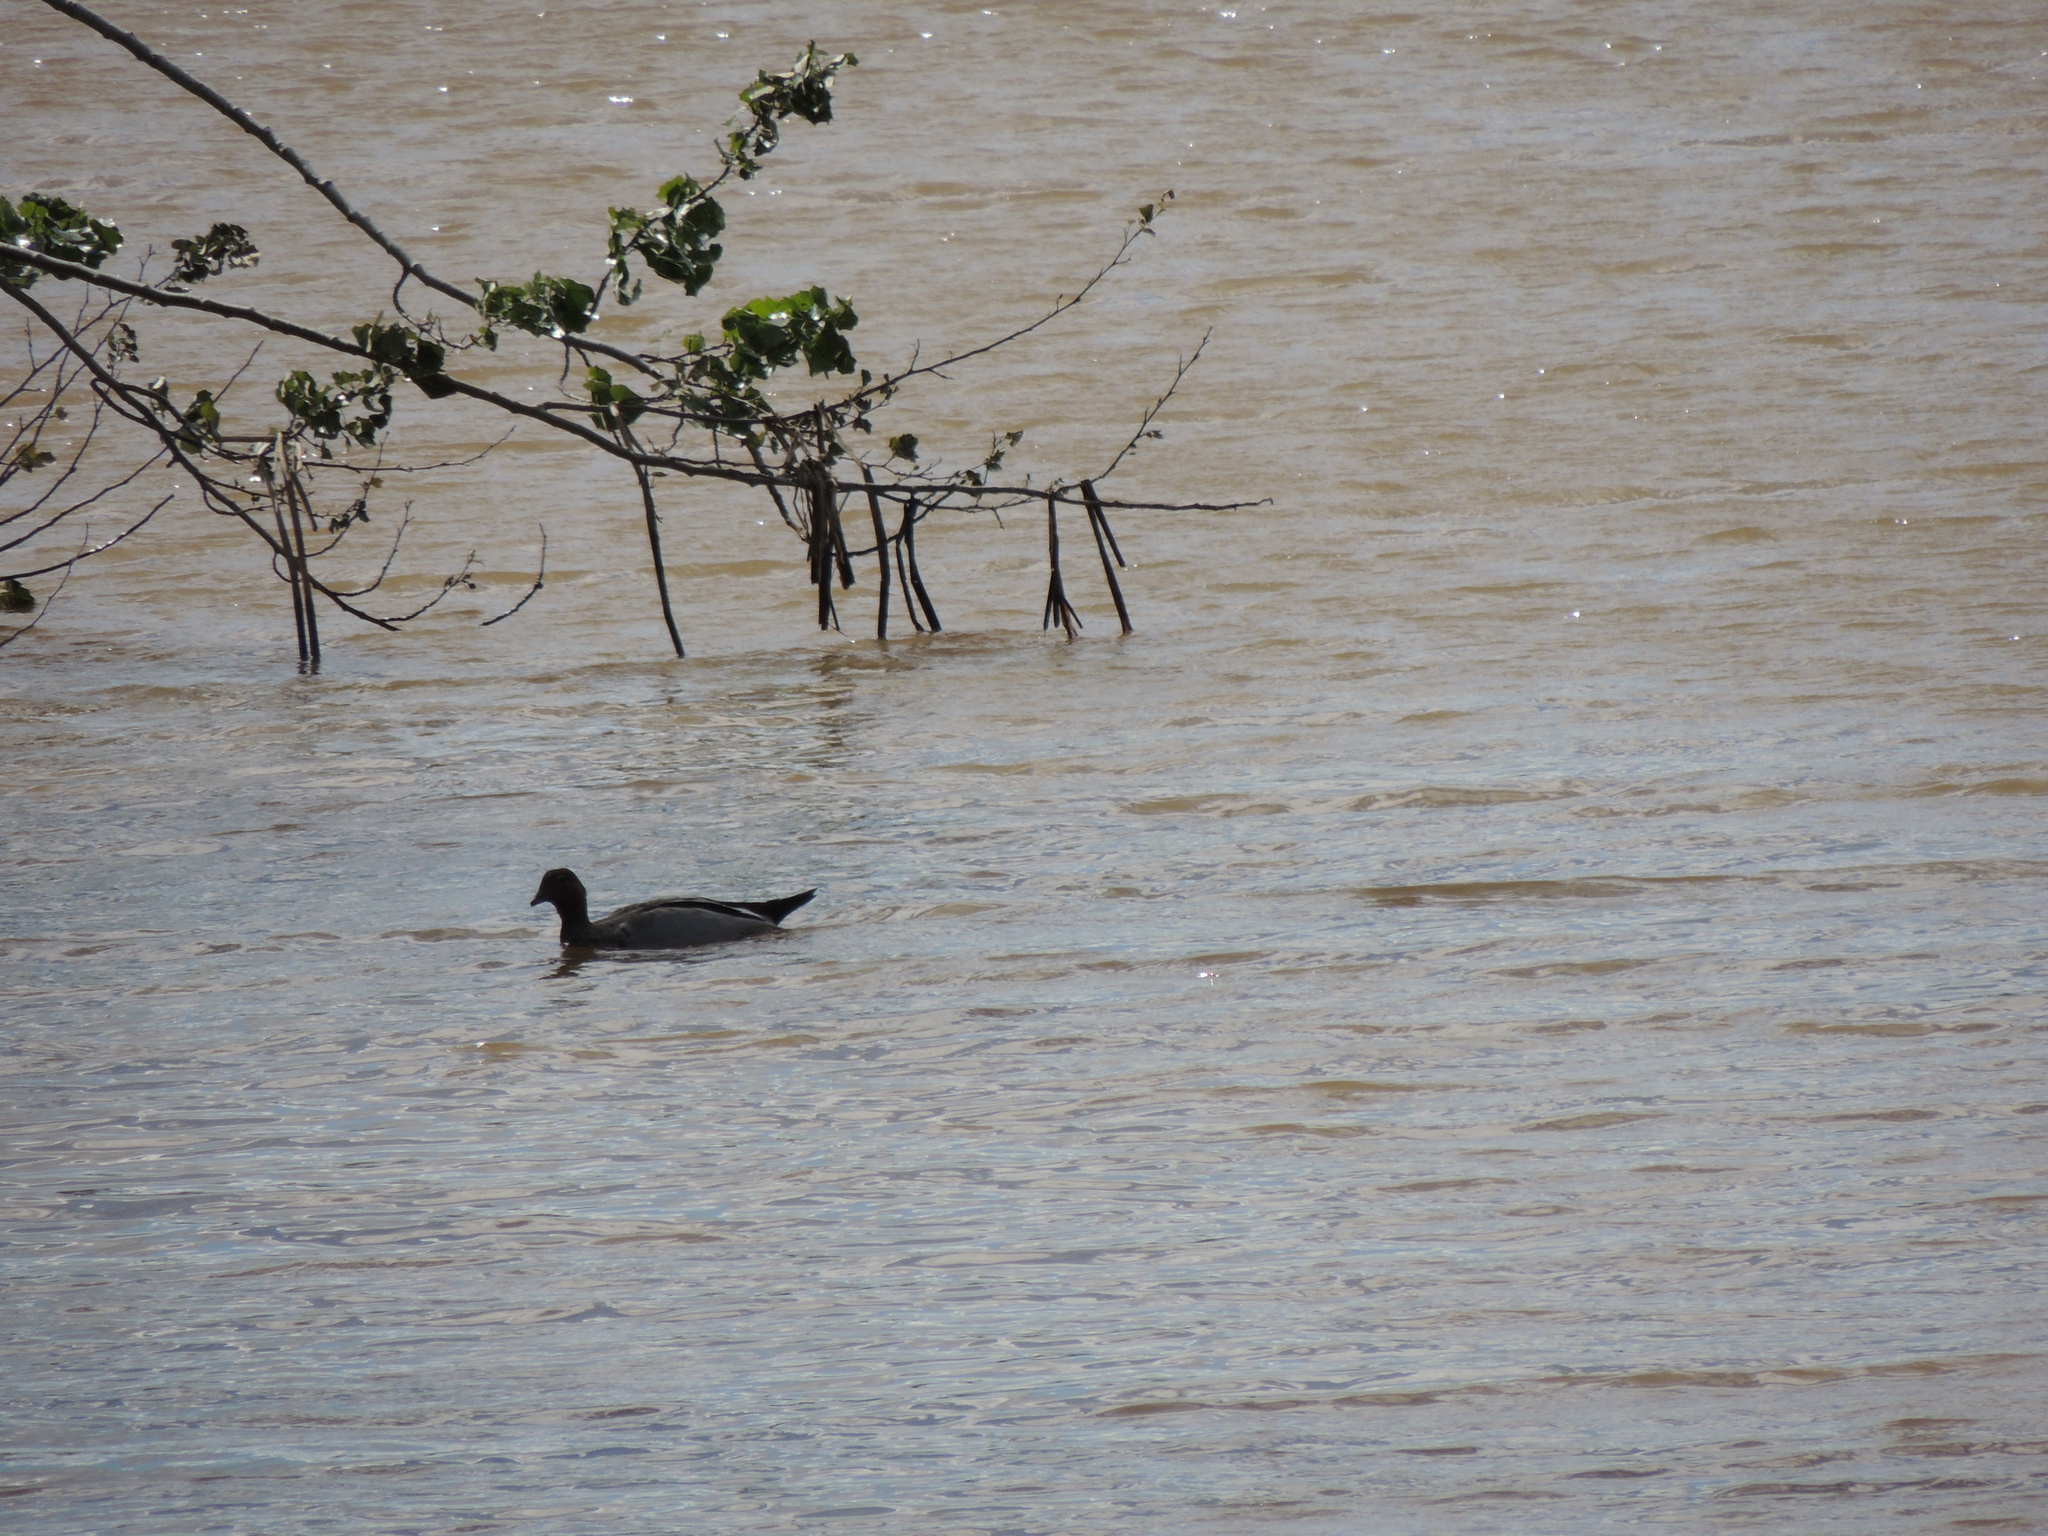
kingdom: Animalia
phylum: Chordata
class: Aves
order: Anseriformes
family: Anatidae
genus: Chenonetta
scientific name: Chenonetta jubata
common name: Maned duck
